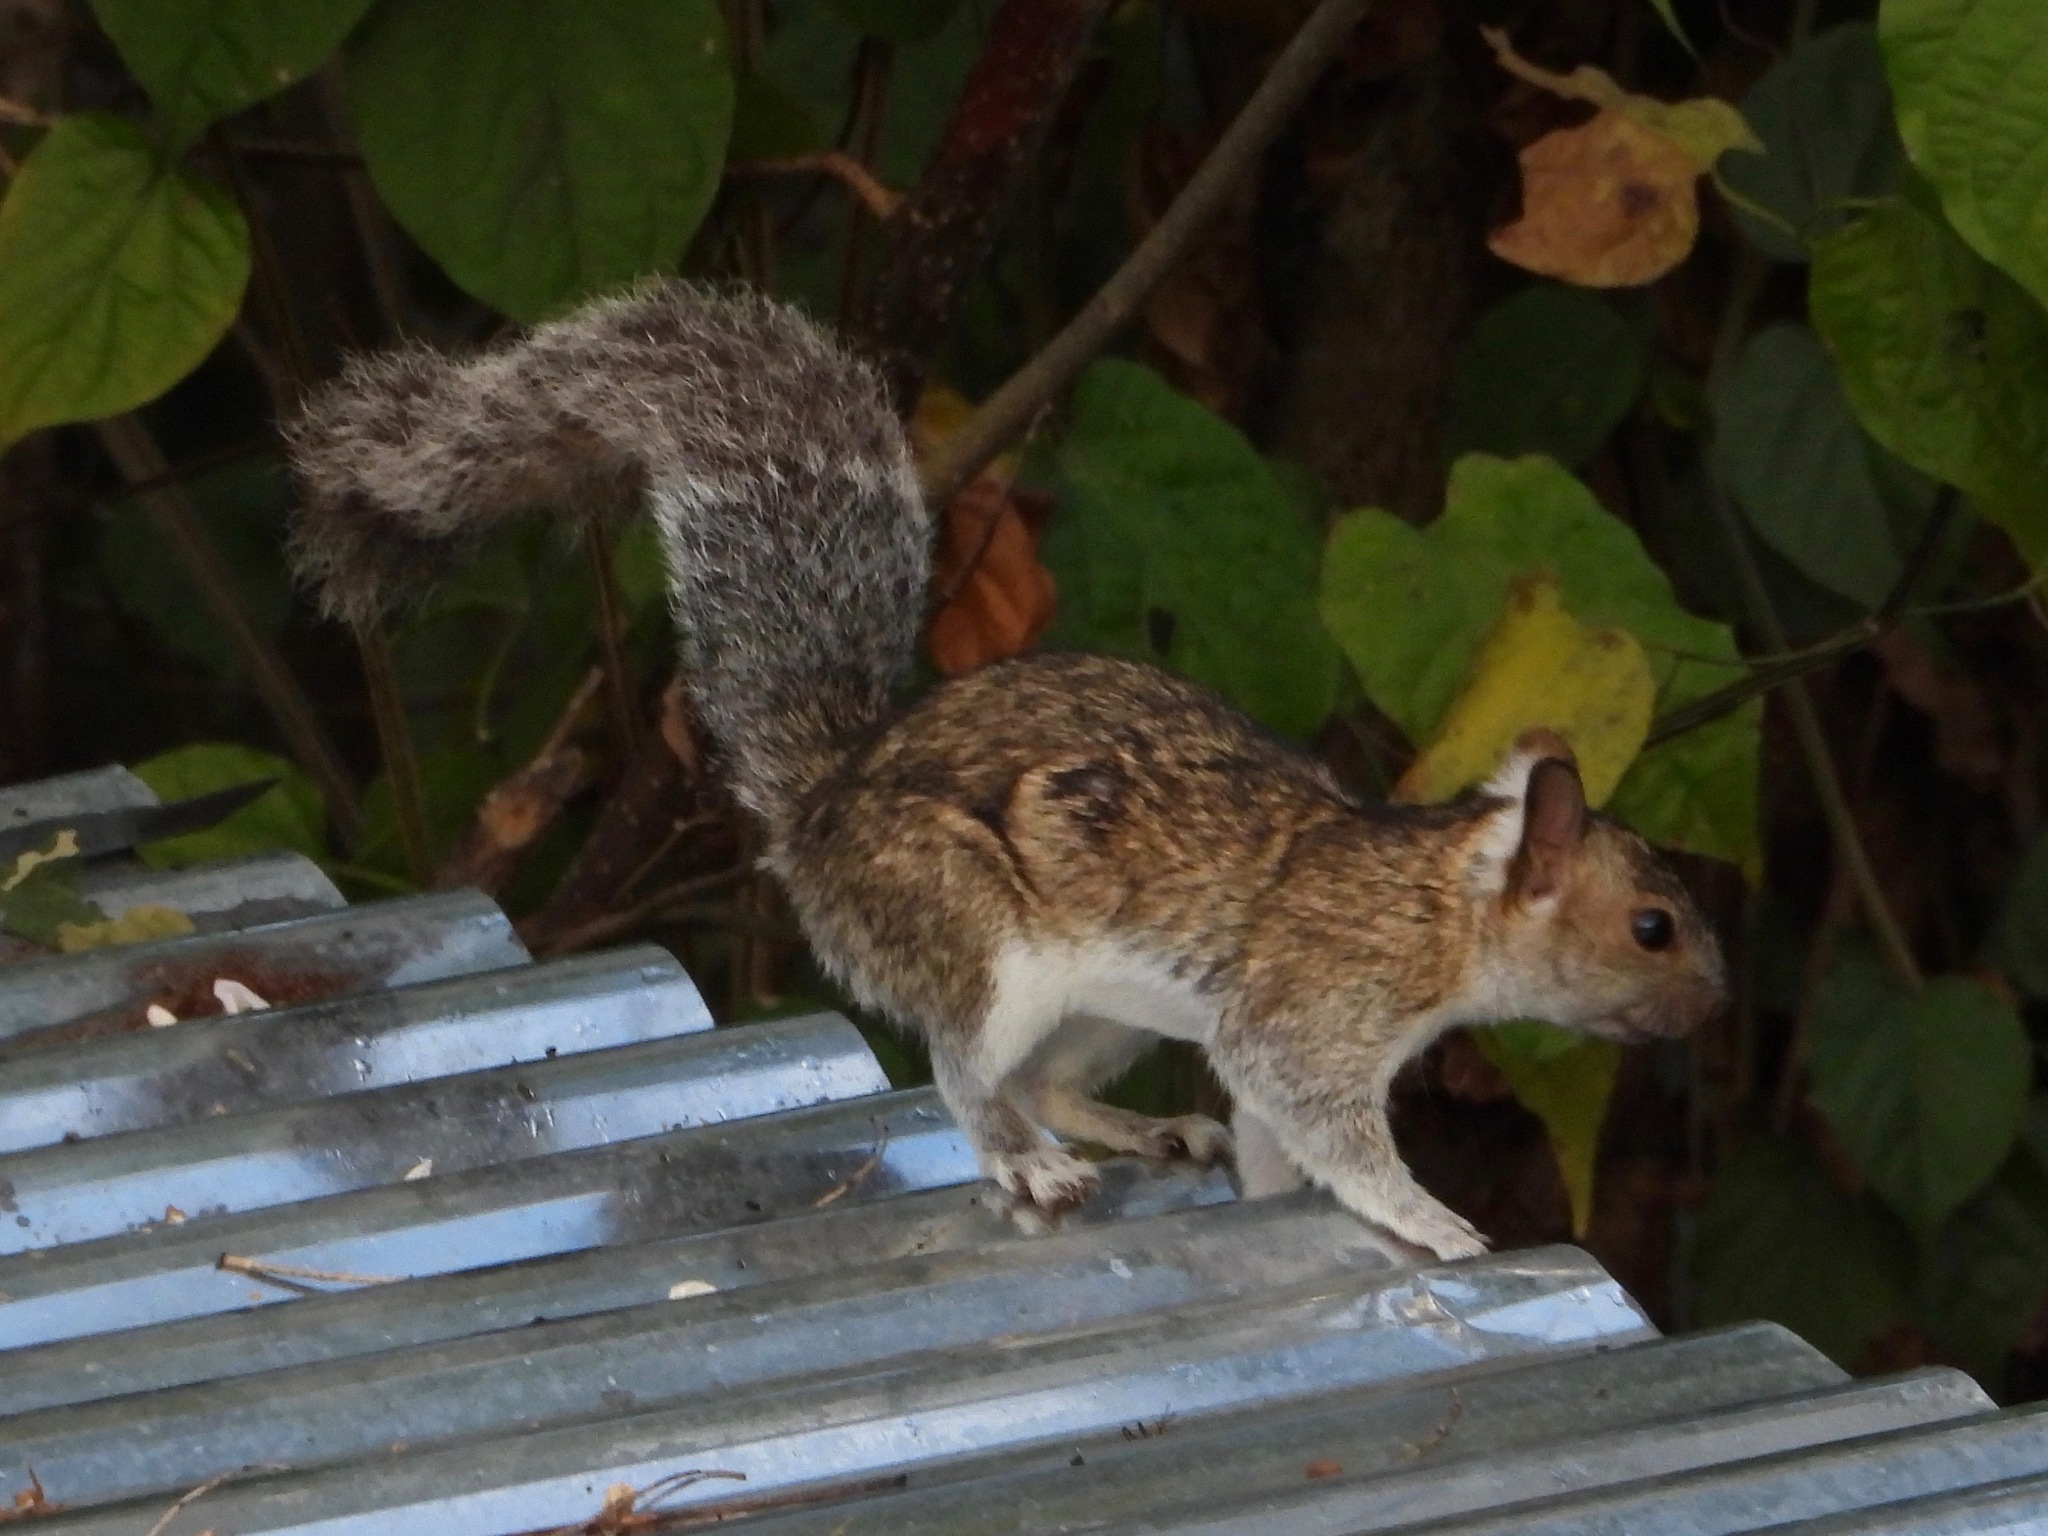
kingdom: Animalia
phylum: Chordata
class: Mammalia
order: Rodentia
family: Sciuridae
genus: Sciurus
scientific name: Sciurus variegatoides
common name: Variegated squirrel
